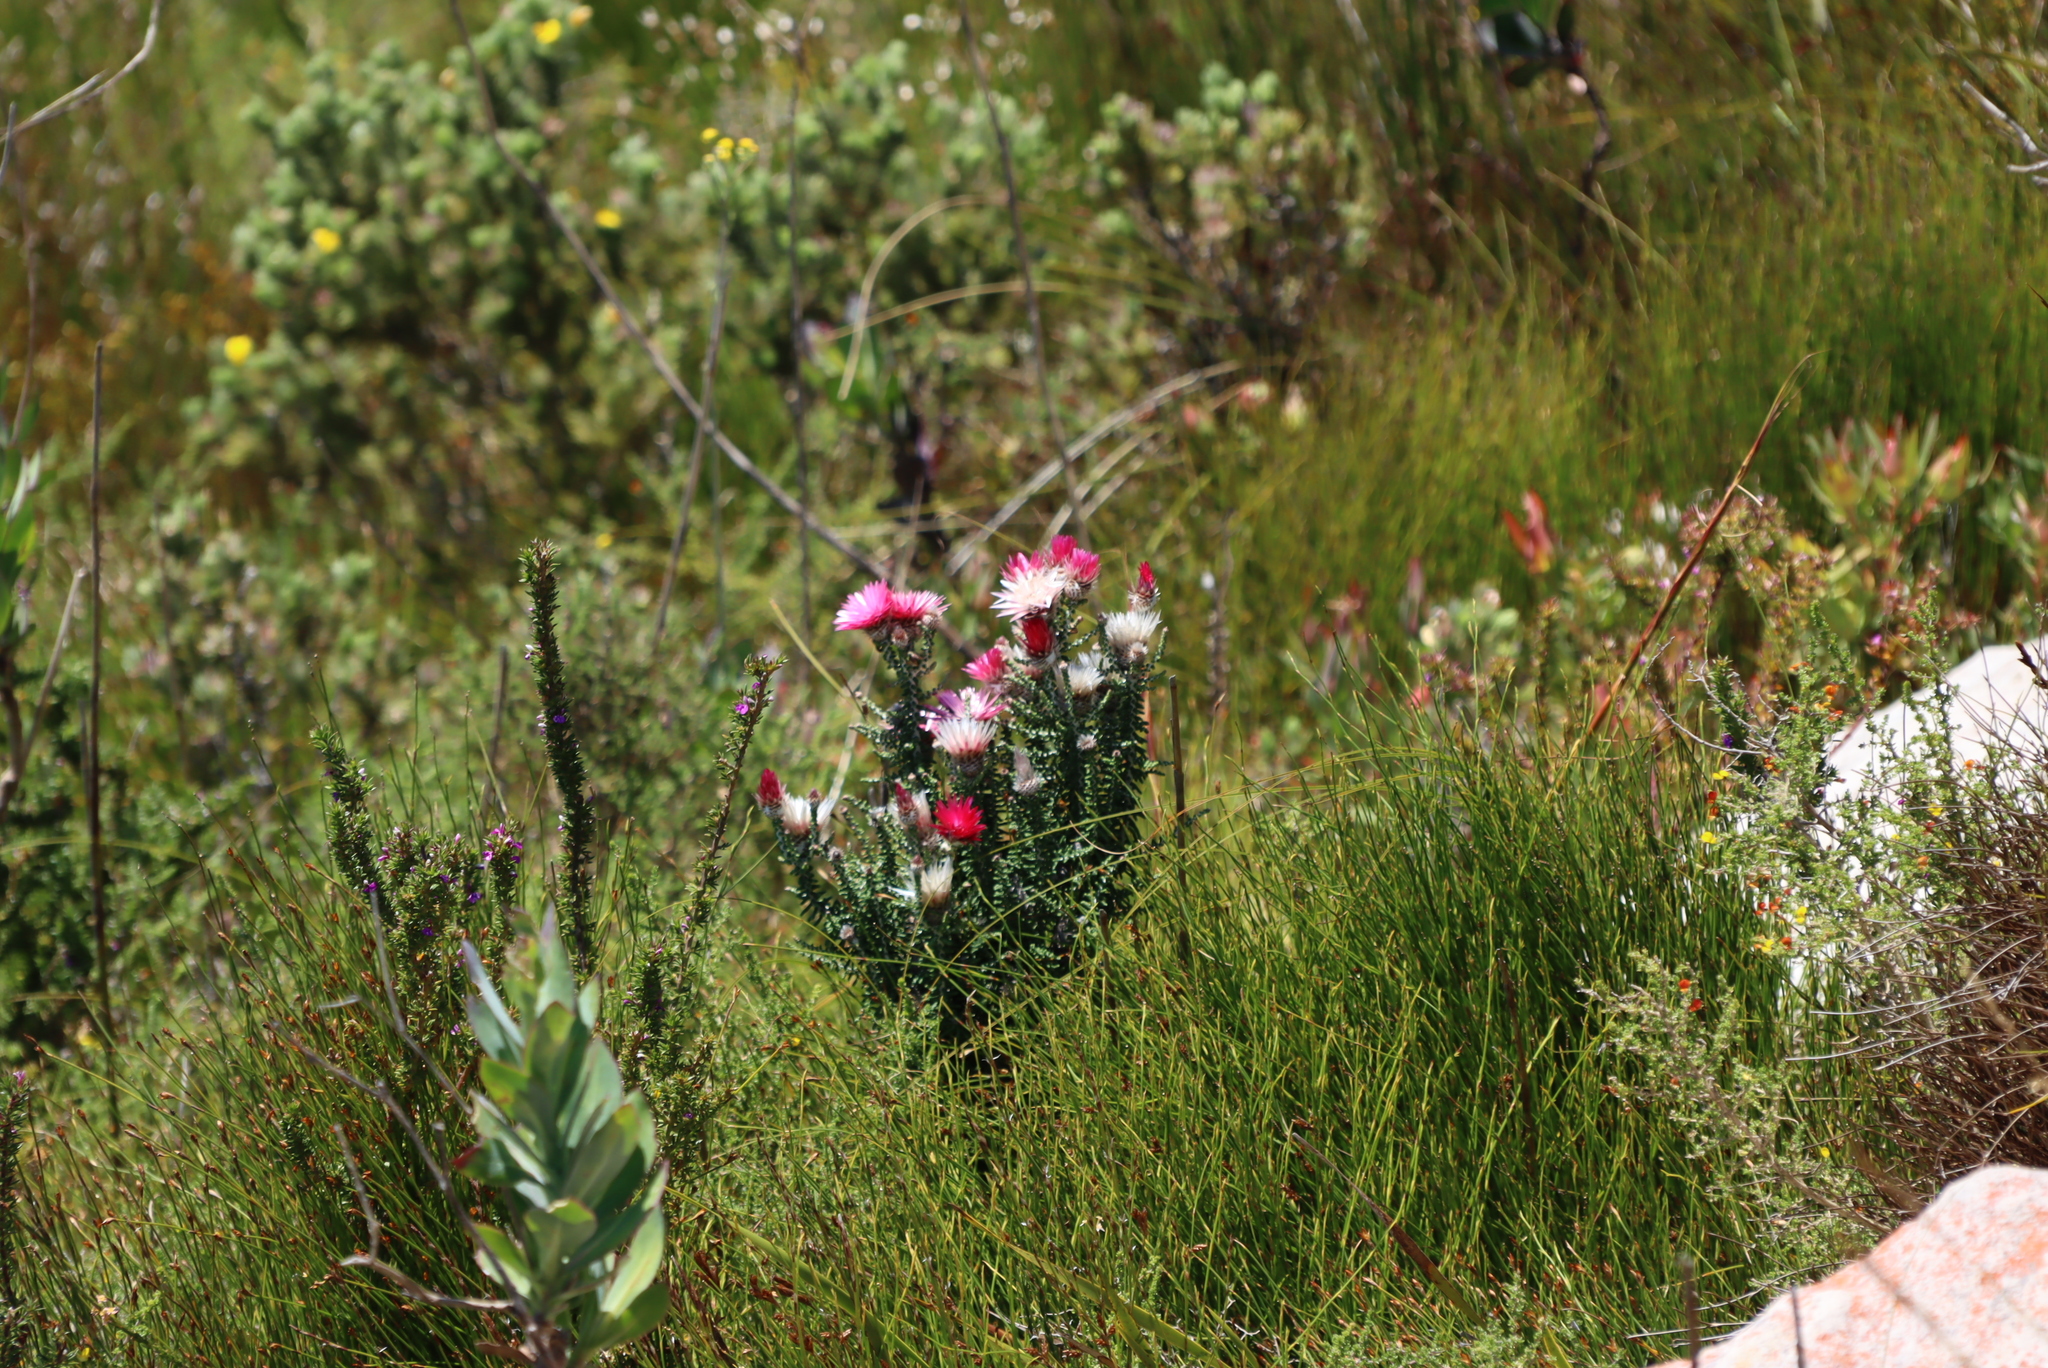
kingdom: Plantae
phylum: Tracheophyta
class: Magnoliopsida
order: Asterales
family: Asteraceae
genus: Phaenocoma
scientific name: Phaenocoma prolifera
